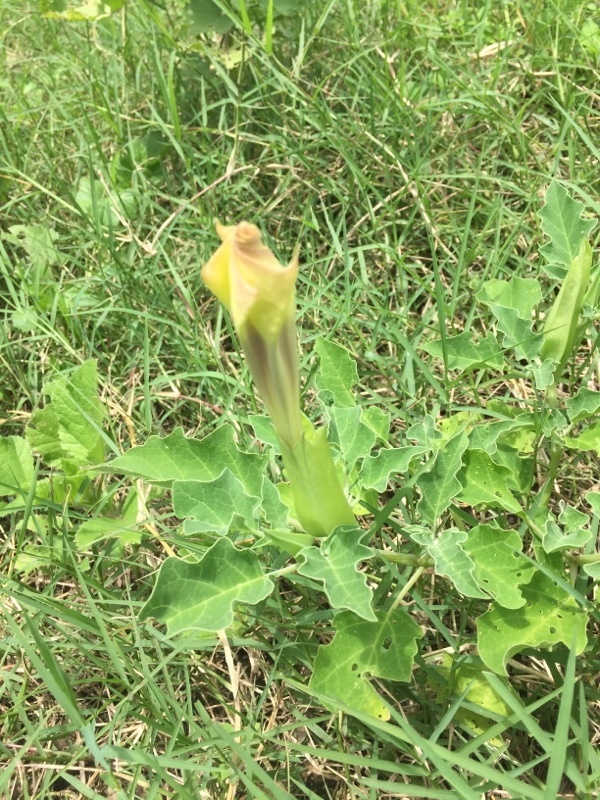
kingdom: Plantae
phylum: Tracheophyta
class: Magnoliopsida
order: Solanales
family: Solanaceae
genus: Datura
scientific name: Datura discolor
